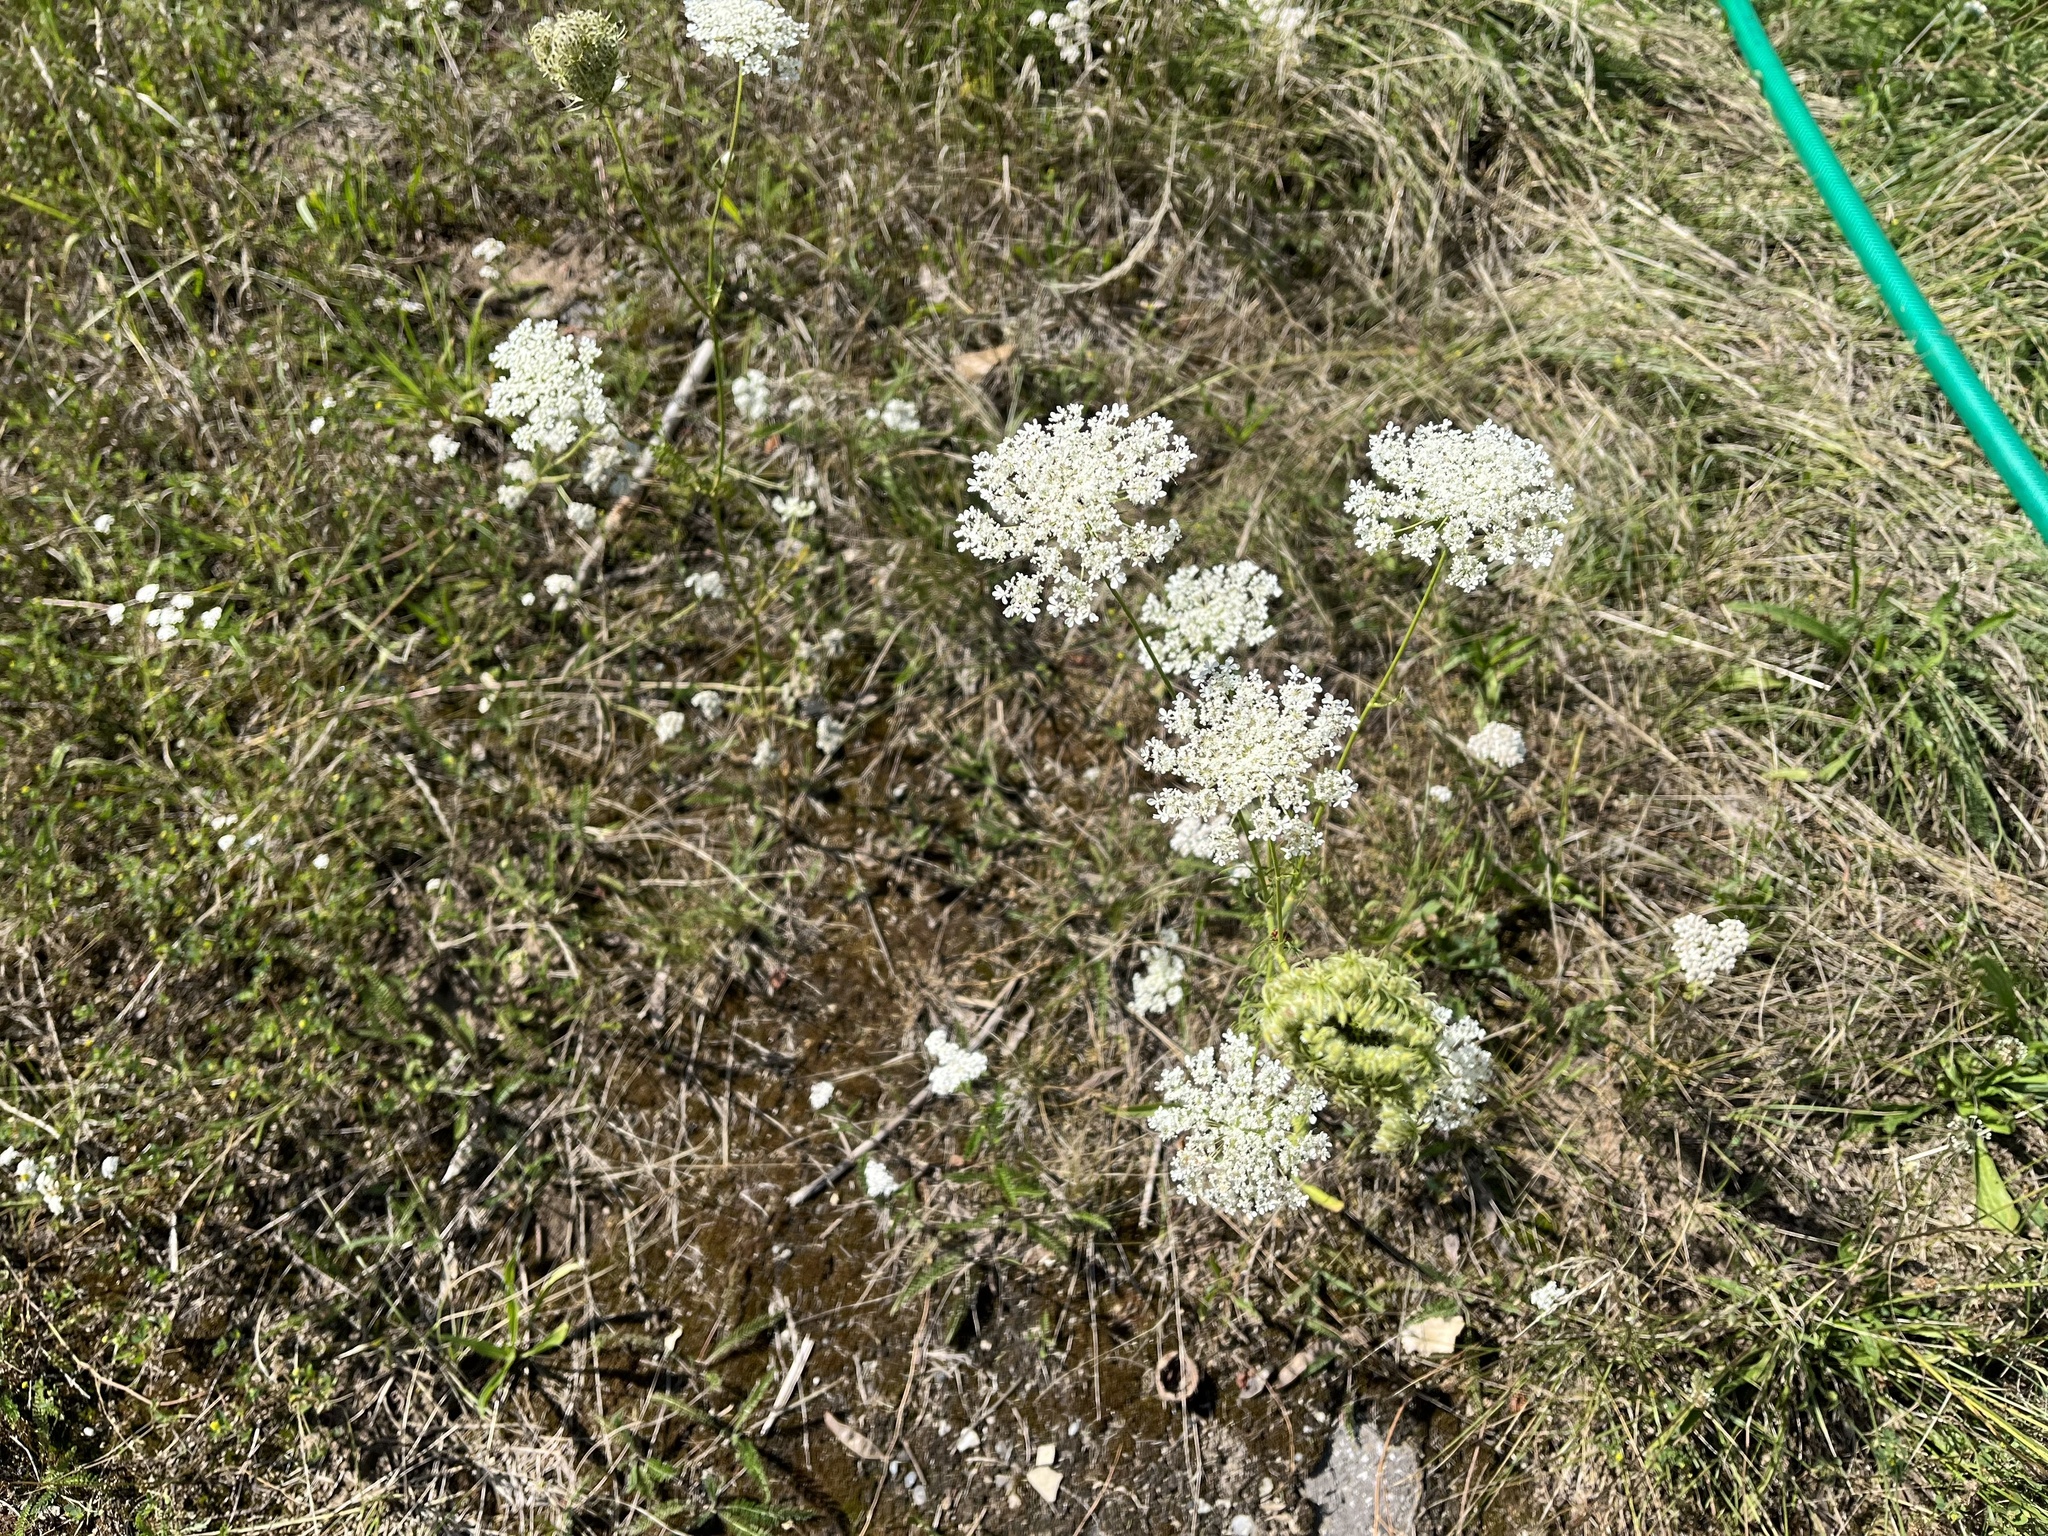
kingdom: Plantae
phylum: Tracheophyta
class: Magnoliopsida
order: Apiales
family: Apiaceae
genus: Daucus
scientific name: Daucus carota
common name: Wild carrot
